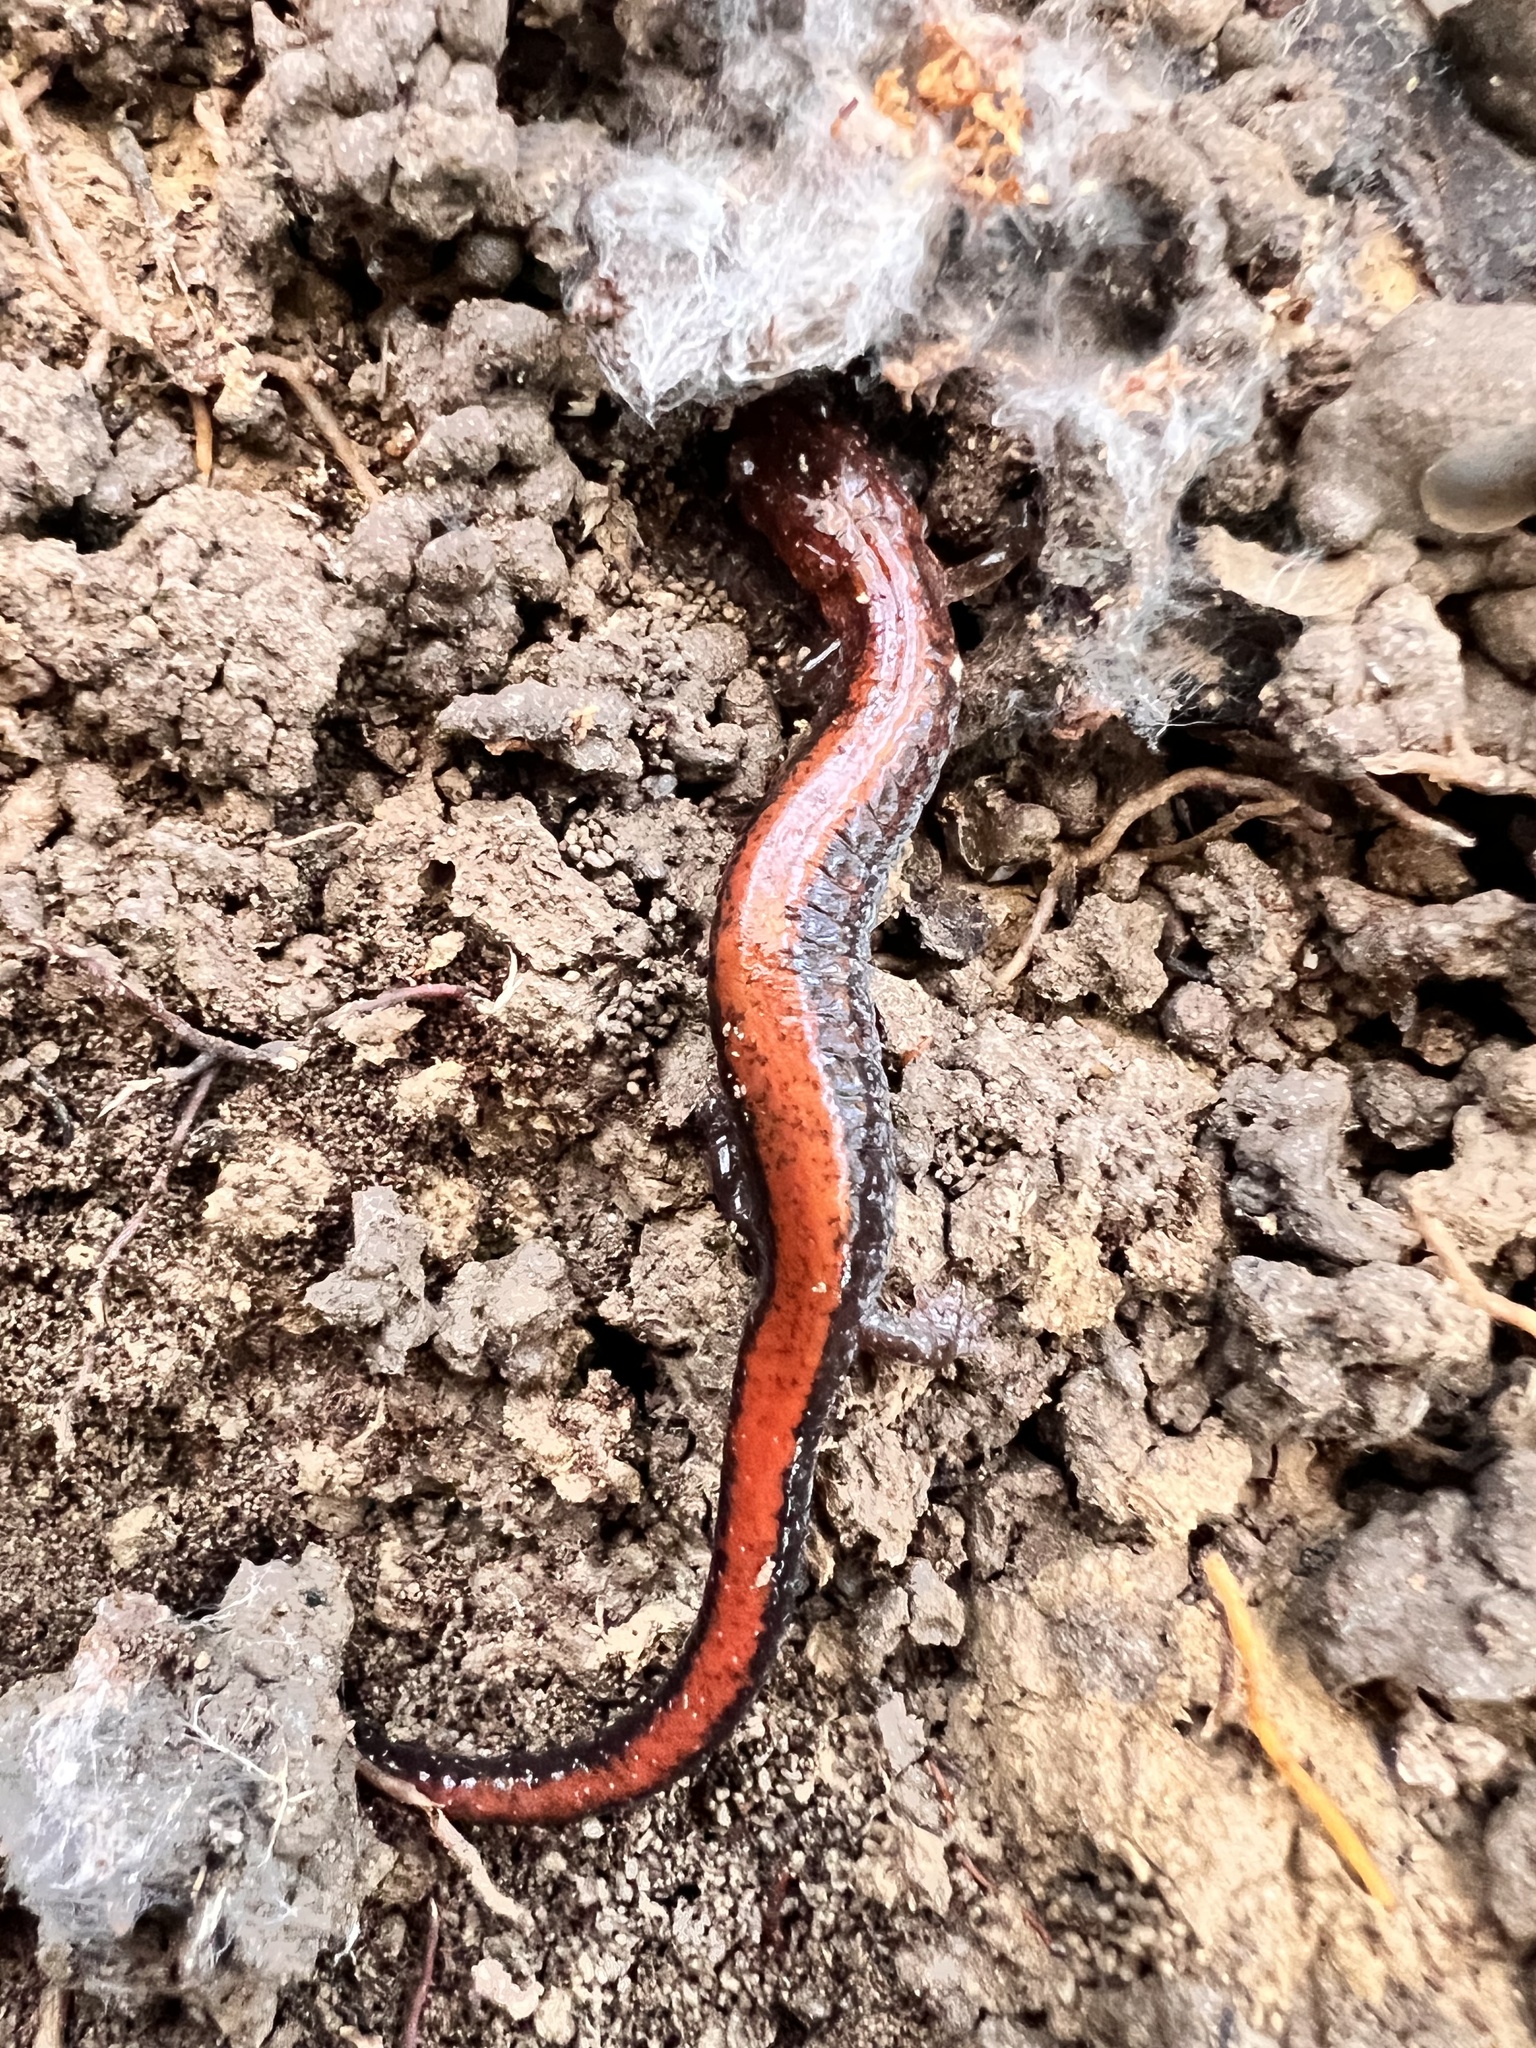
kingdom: Animalia
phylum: Chordata
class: Amphibia
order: Caudata
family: Plethodontidae
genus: Plethodon
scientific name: Plethodon cinereus
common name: Redback salamander
